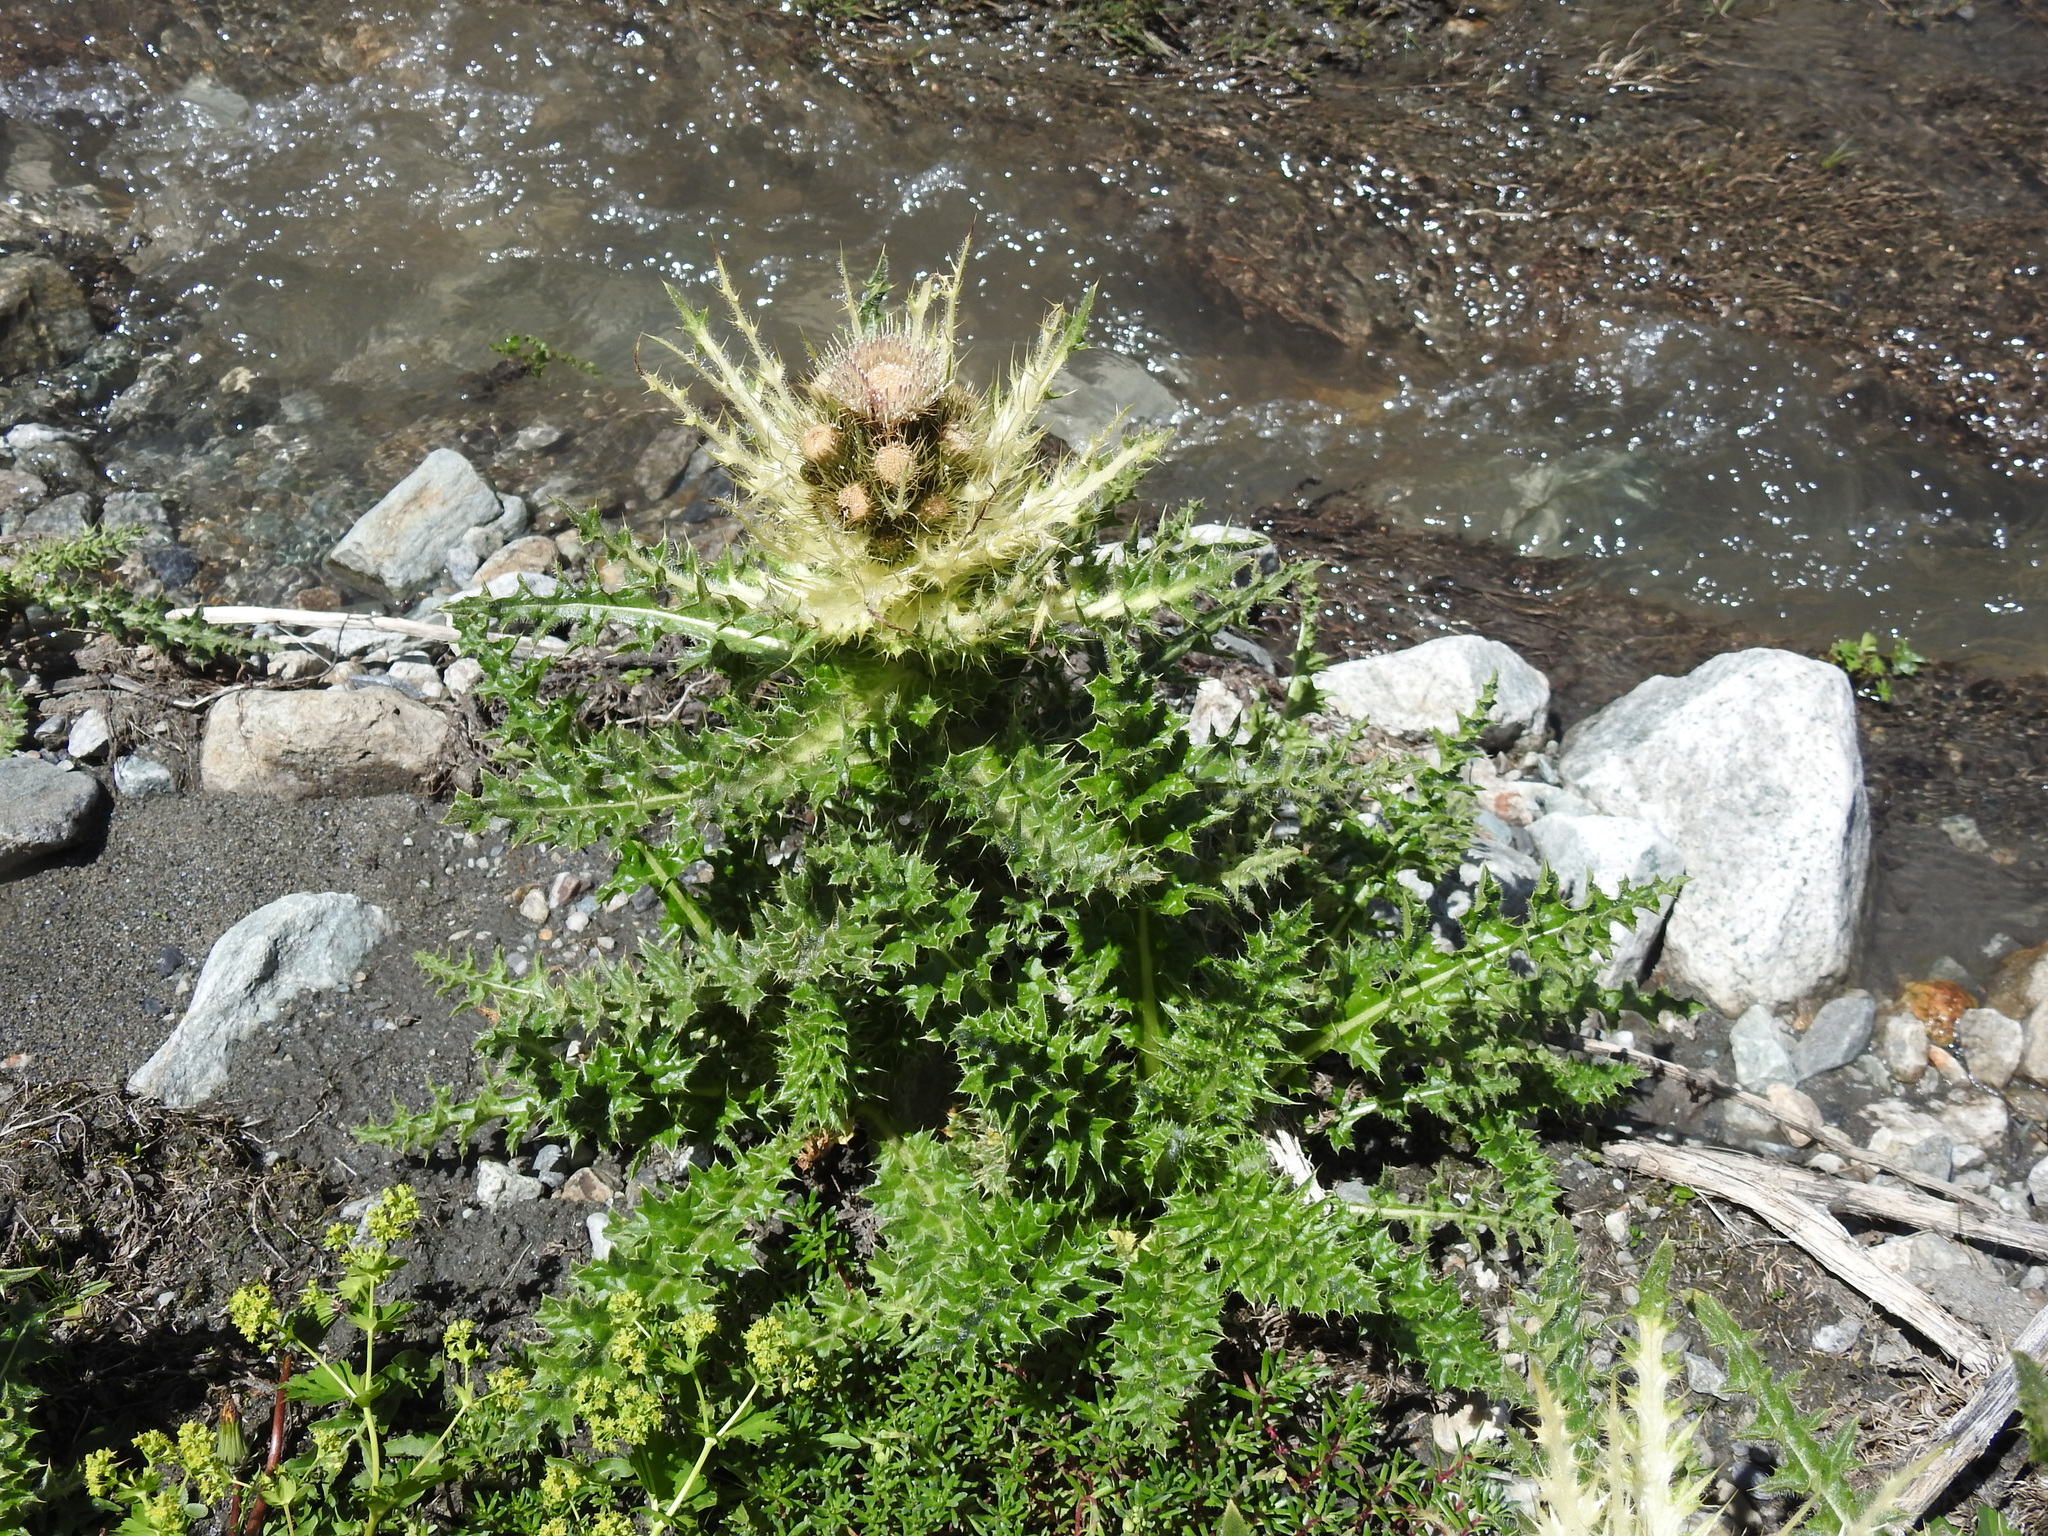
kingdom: Plantae
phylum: Tracheophyta
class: Magnoliopsida
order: Asterales
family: Asteraceae
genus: Cirsium
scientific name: Cirsium spinosissimum
